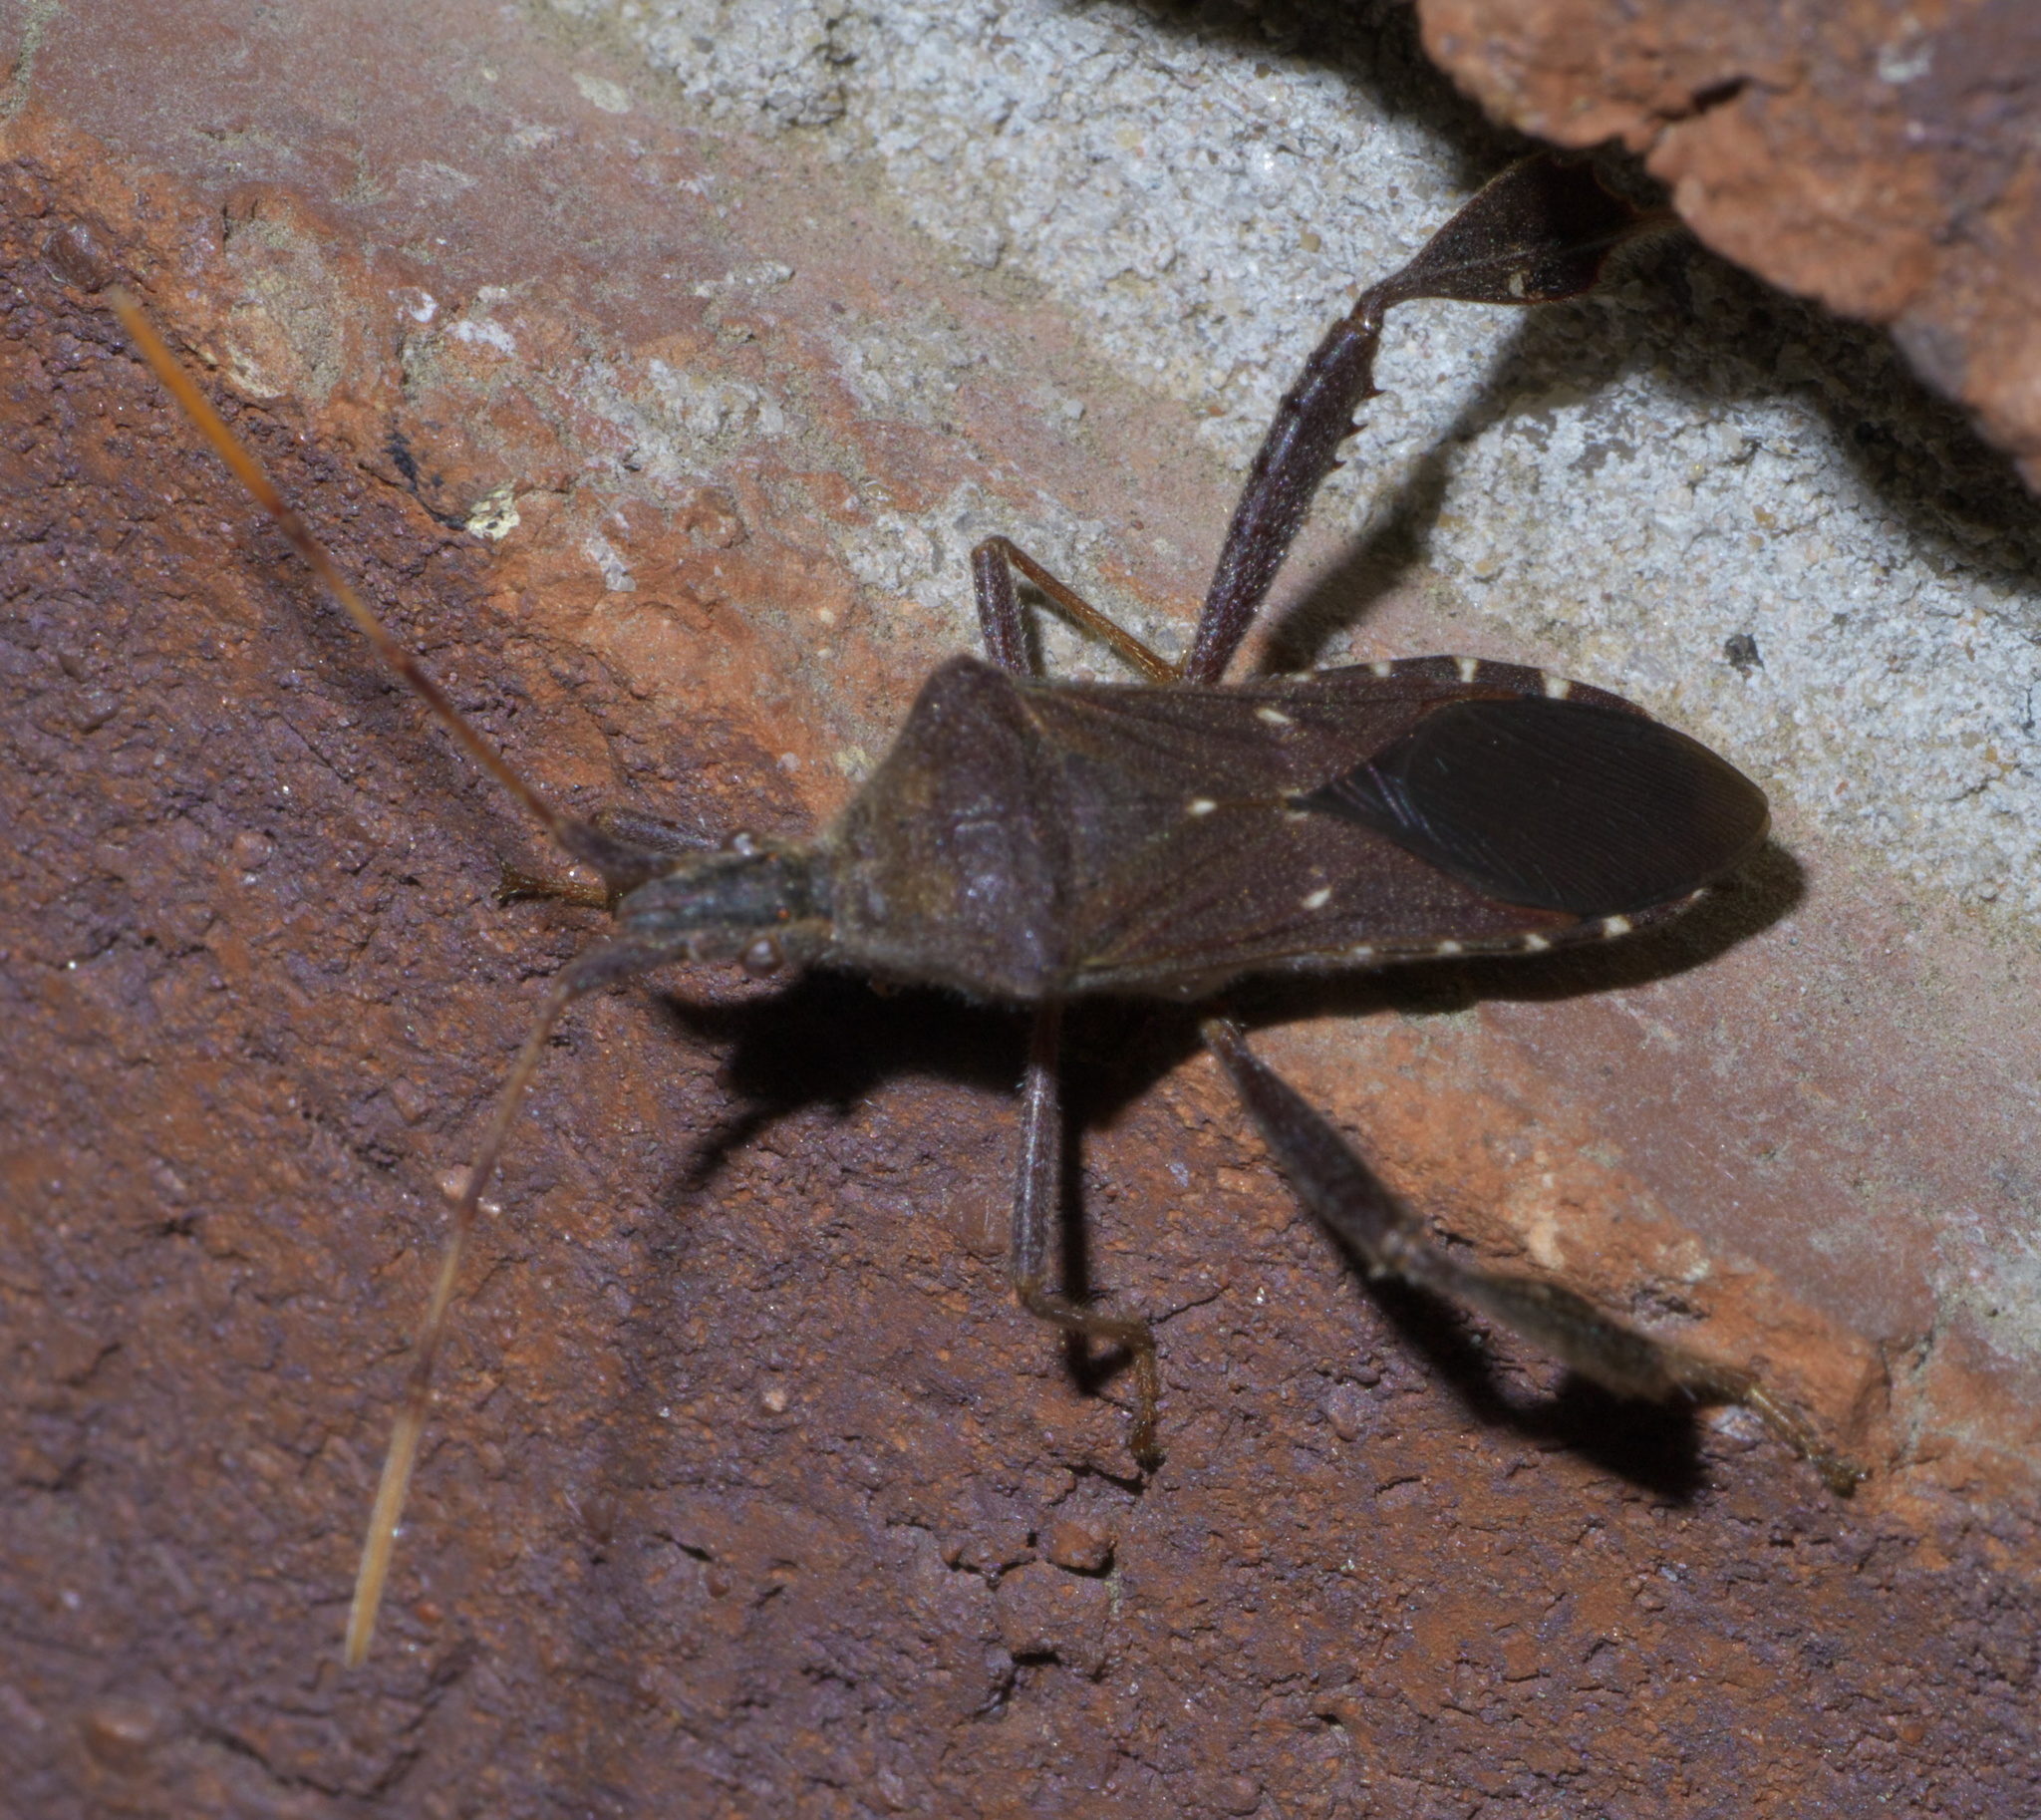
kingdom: Animalia
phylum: Arthropoda
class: Insecta
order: Hemiptera
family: Coreidae
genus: Leptoglossus
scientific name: Leptoglossus oppositus
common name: Northern leaf-footed bug
